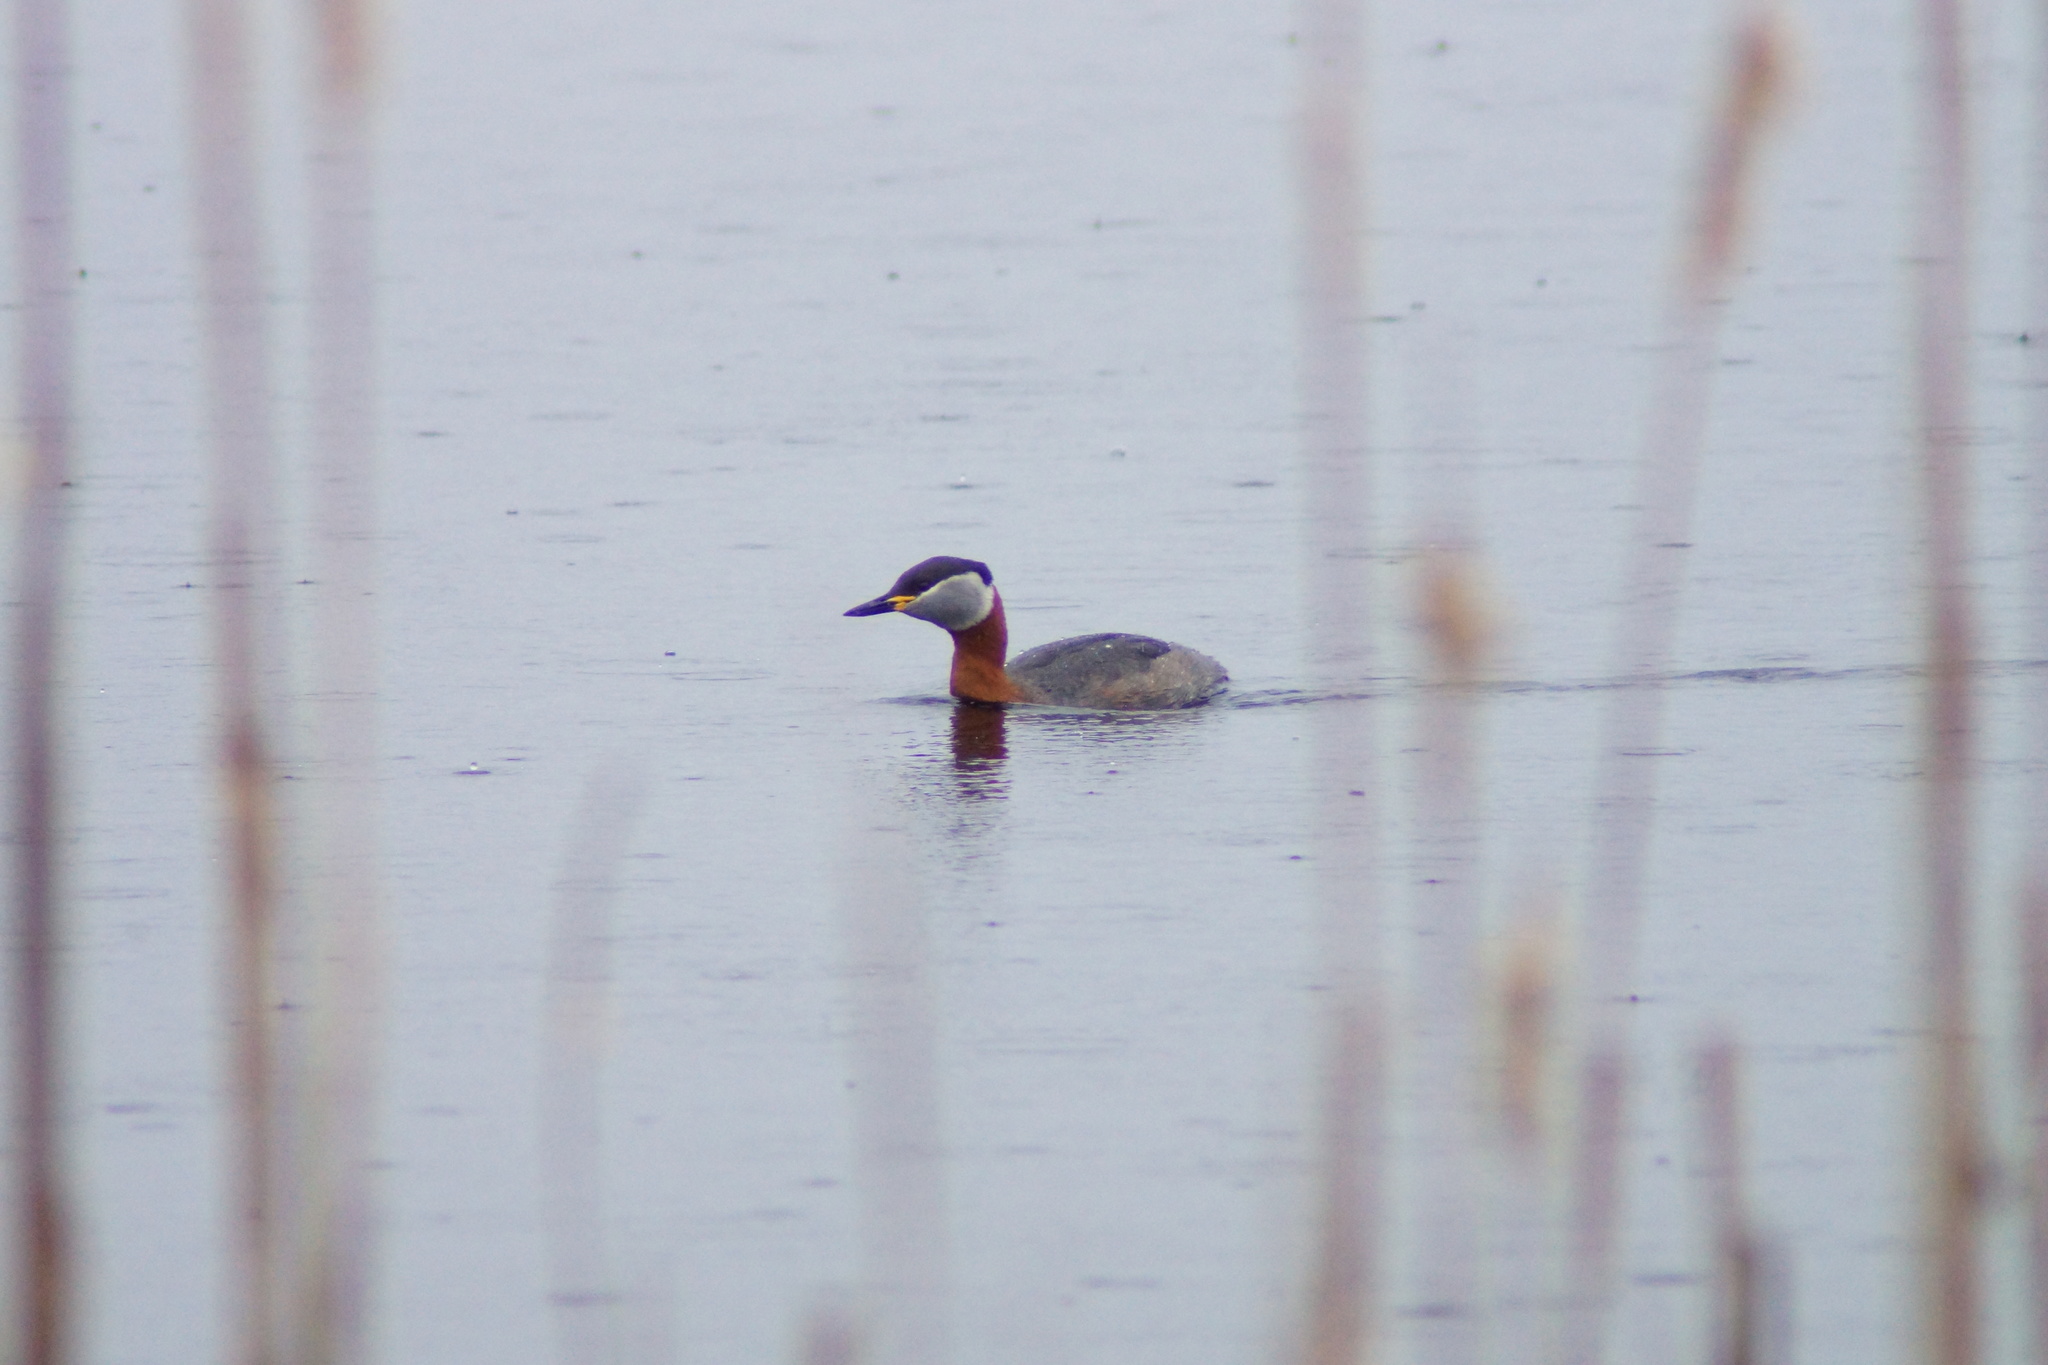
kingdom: Animalia
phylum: Chordata
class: Aves
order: Podicipediformes
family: Podicipedidae
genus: Podiceps
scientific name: Podiceps grisegena
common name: Red-necked grebe
